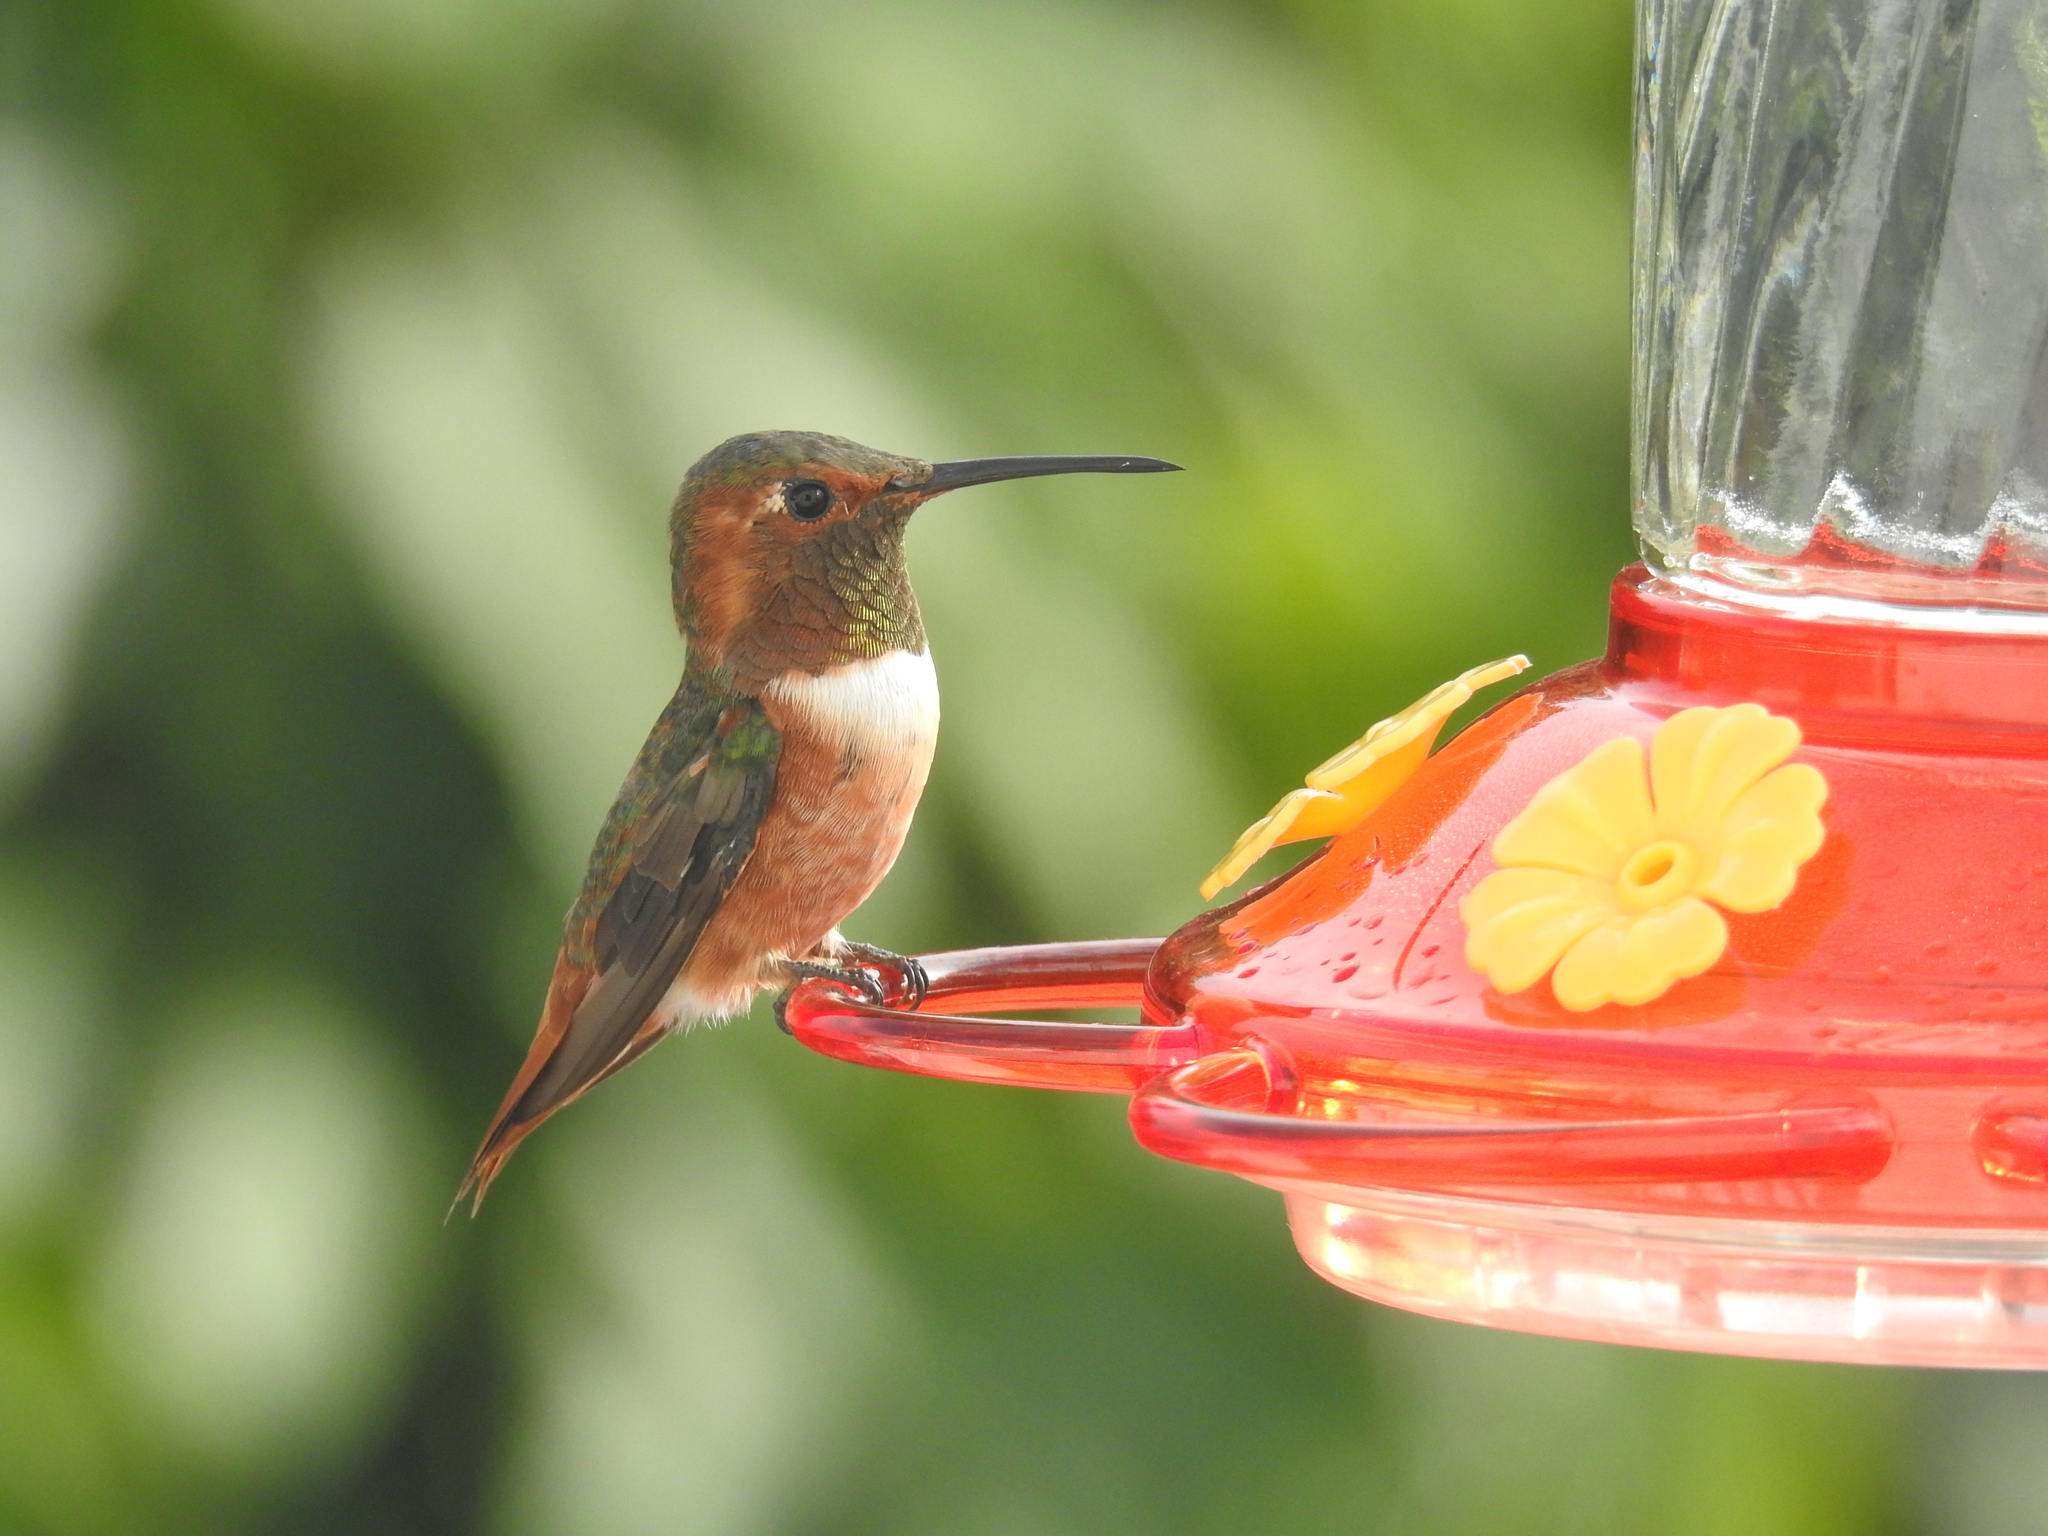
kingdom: Animalia
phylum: Chordata
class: Aves
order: Apodiformes
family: Trochilidae
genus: Selasphorus
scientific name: Selasphorus sasin
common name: Allen's hummingbird
